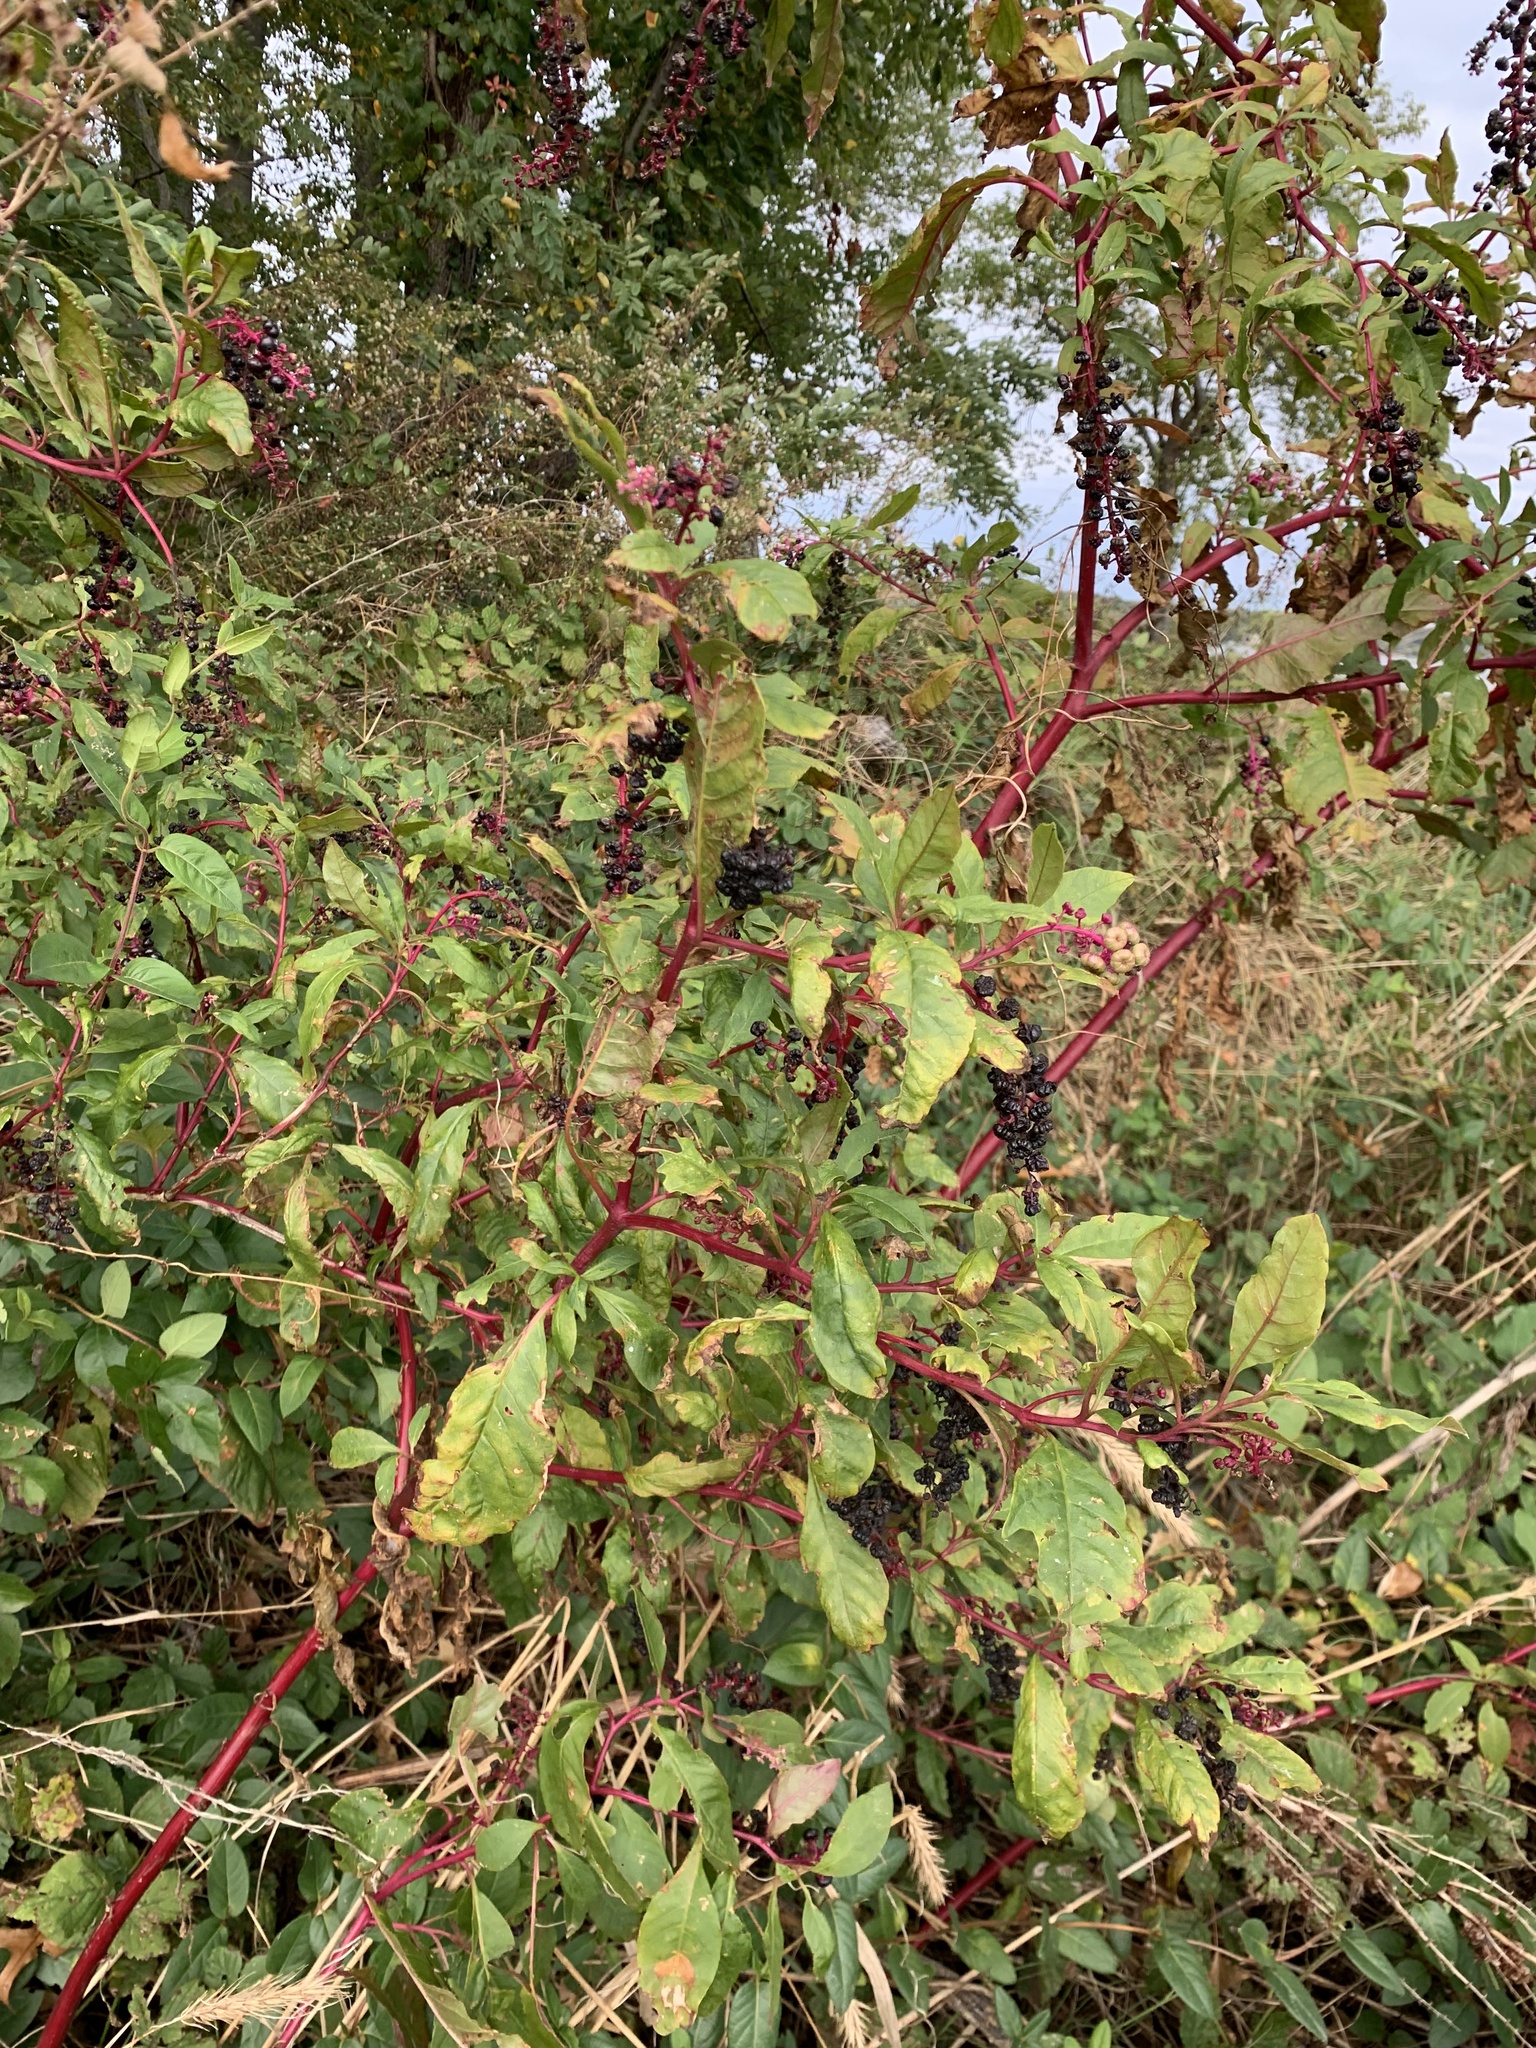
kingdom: Plantae
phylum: Tracheophyta
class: Magnoliopsida
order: Caryophyllales
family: Phytolaccaceae
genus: Phytolacca
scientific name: Phytolacca americana
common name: American pokeweed
